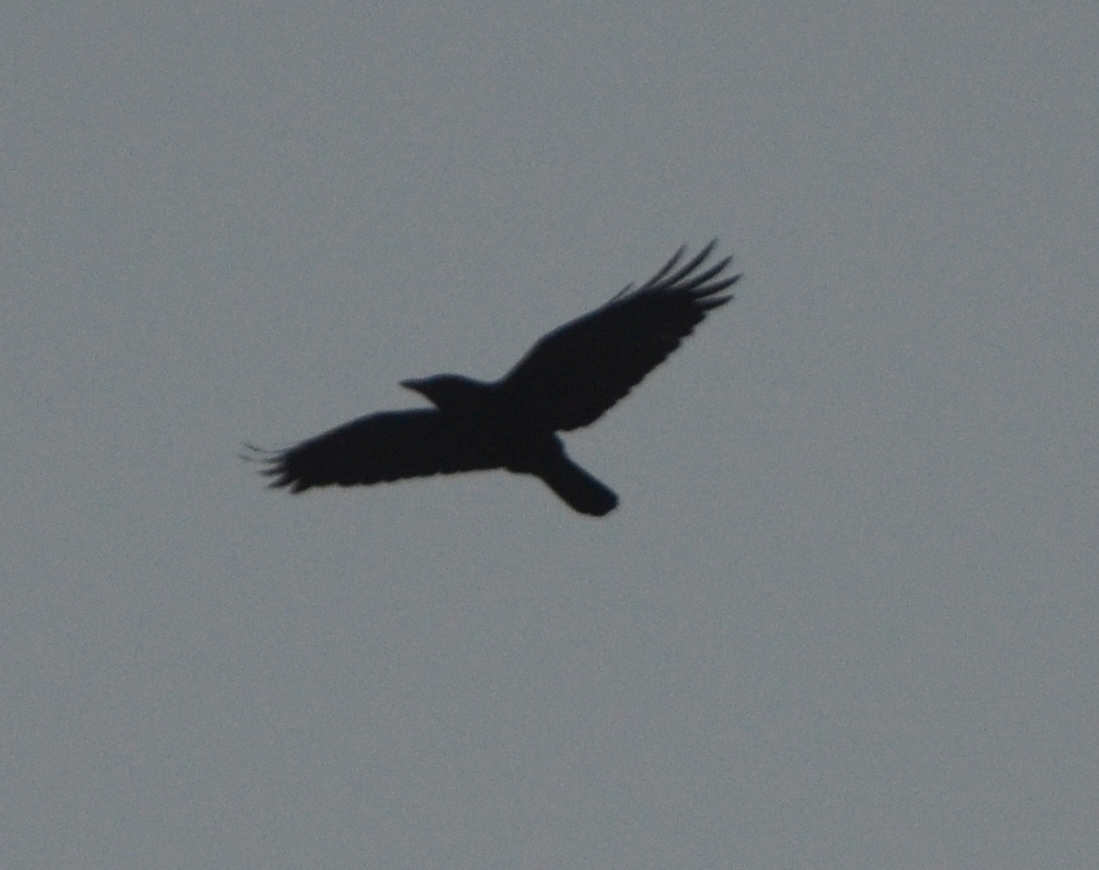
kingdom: Animalia
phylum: Chordata
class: Aves
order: Passeriformes
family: Corvidae
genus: Corvus
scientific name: Corvus corone
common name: Carrion crow
